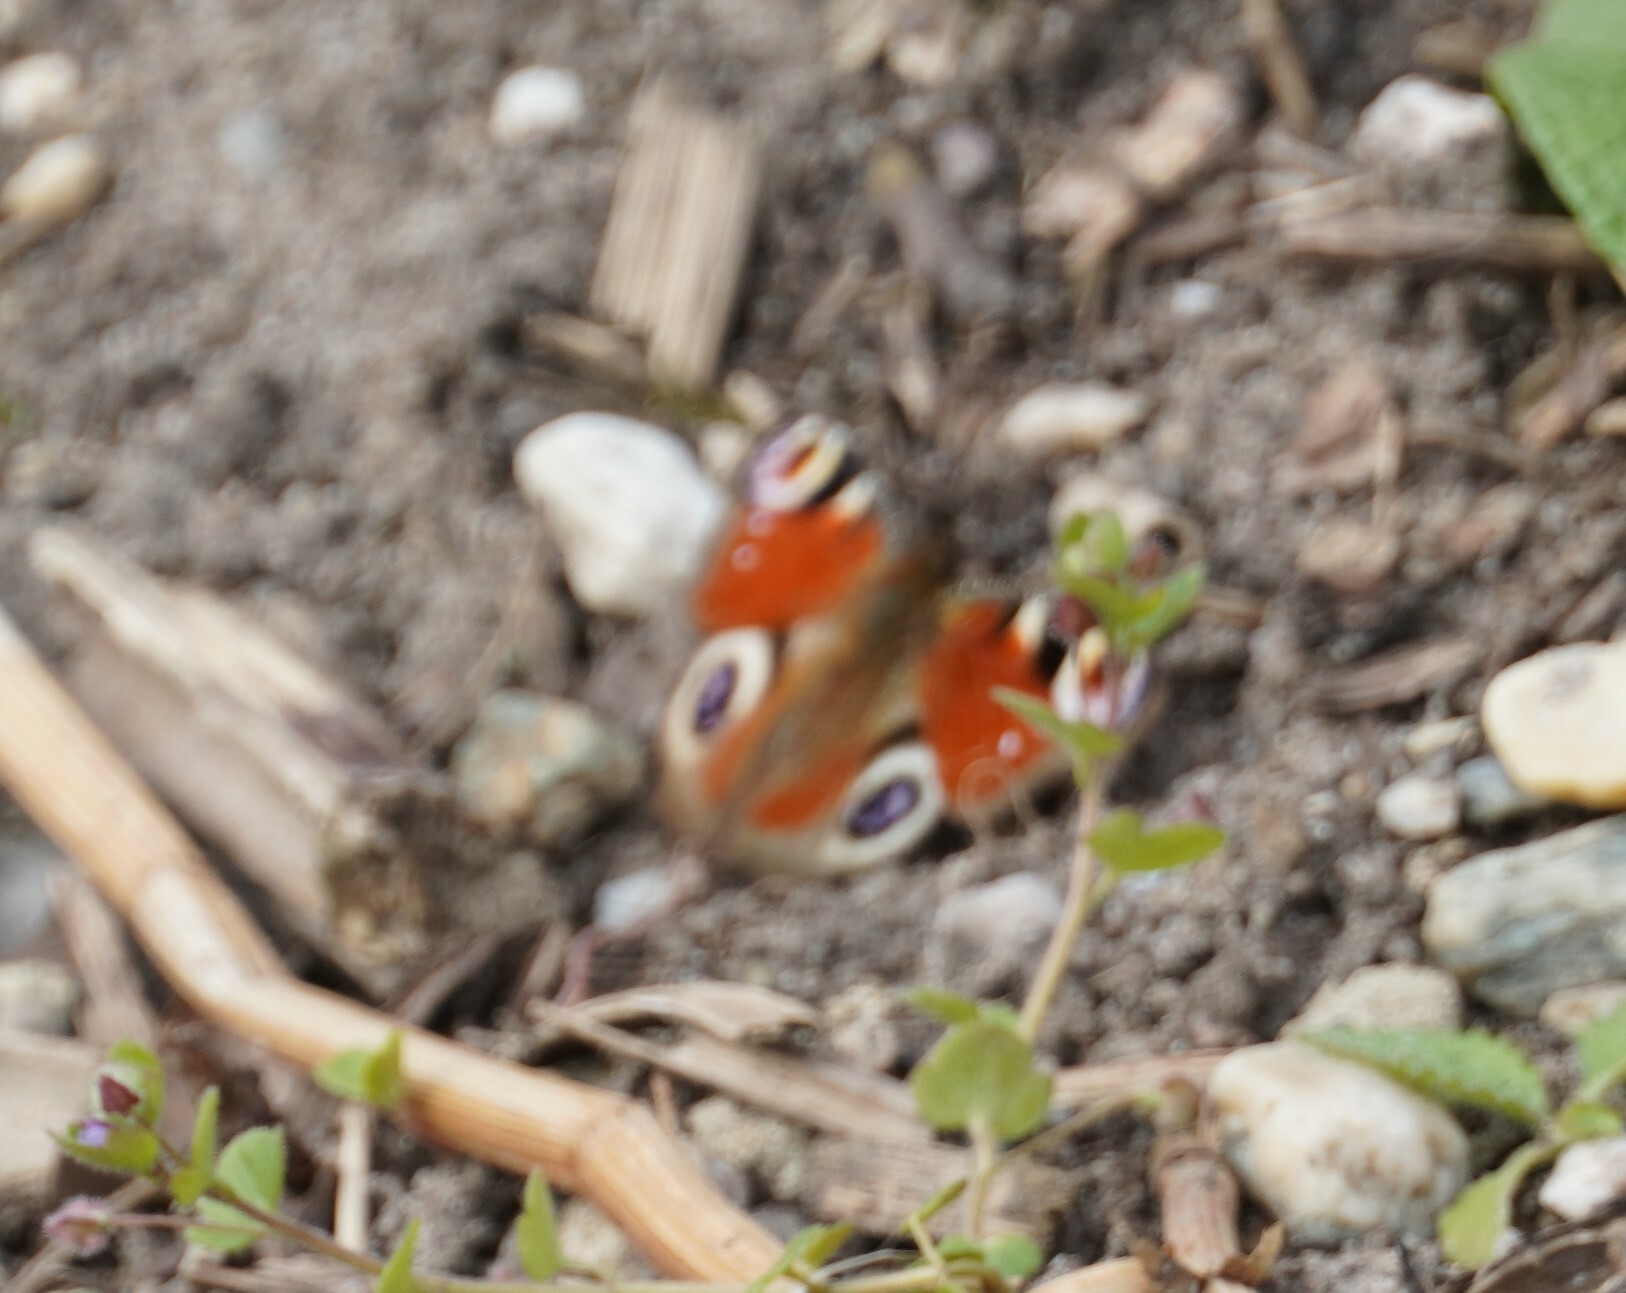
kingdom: Animalia
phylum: Arthropoda
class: Insecta
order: Lepidoptera
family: Nymphalidae
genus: Aglais
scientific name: Aglais io
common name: Peacock
